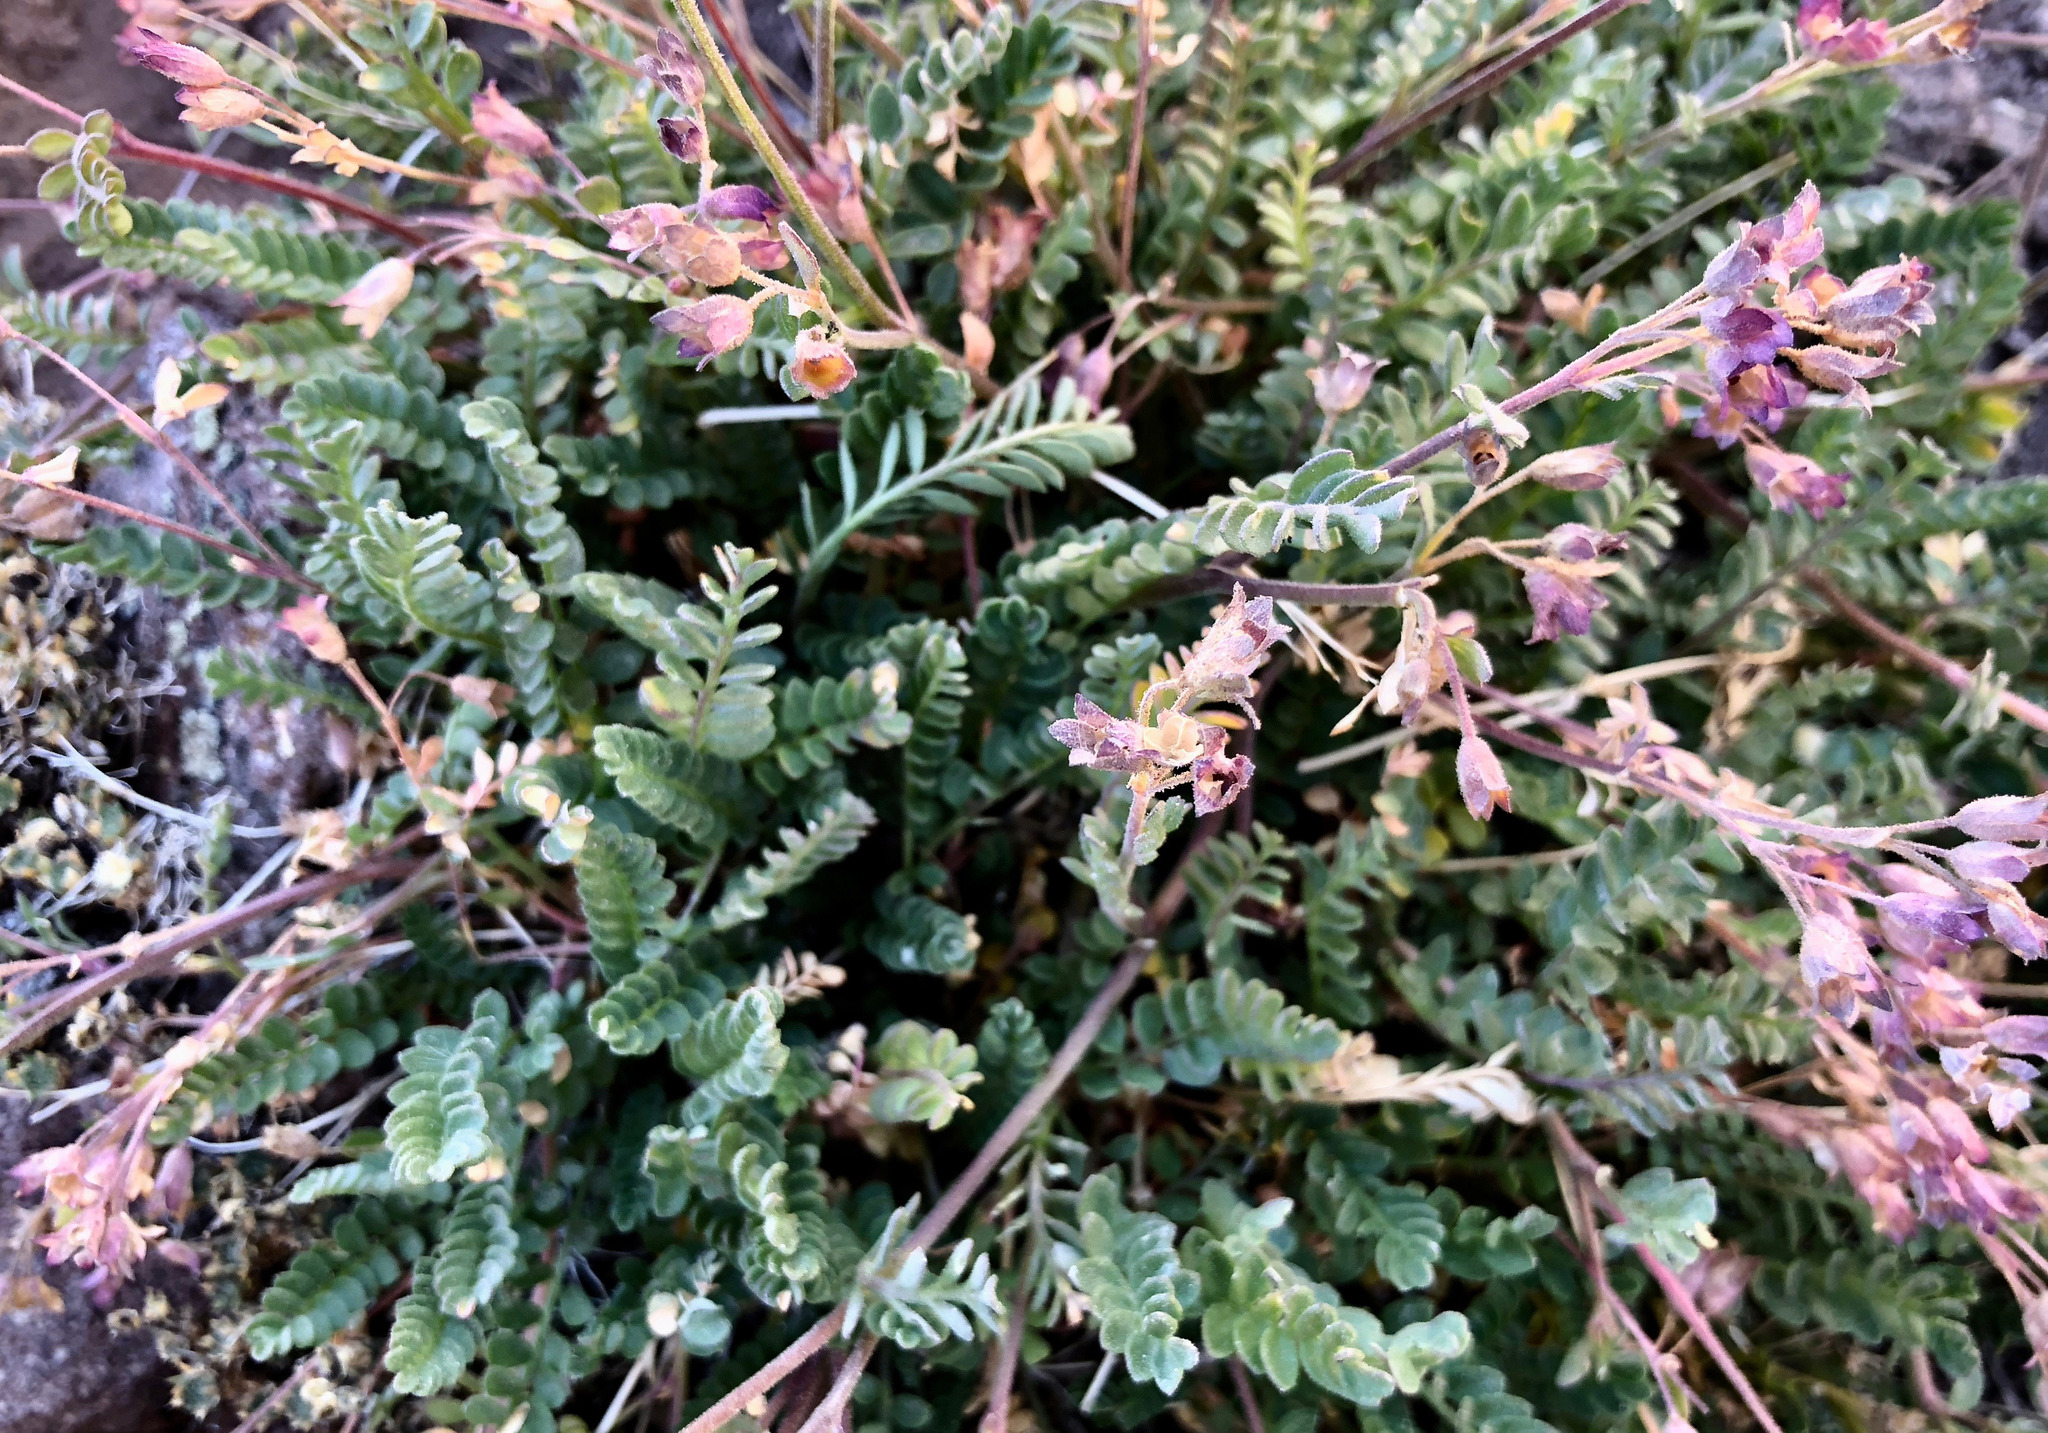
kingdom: Plantae
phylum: Tracheophyta
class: Magnoliopsida
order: Ericales
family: Polemoniaceae
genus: Polemonium
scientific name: Polemonium pulcherrimum
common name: Short jacob's-ladder
